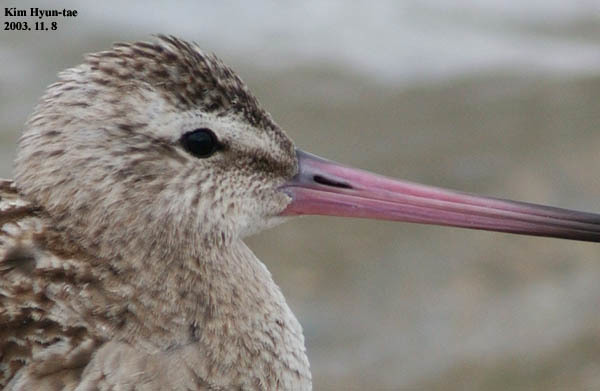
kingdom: Animalia
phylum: Chordata
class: Aves
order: Charadriiformes
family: Scolopacidae
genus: Limosa
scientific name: Limosa lapponica
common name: Bar-tailed godwit
